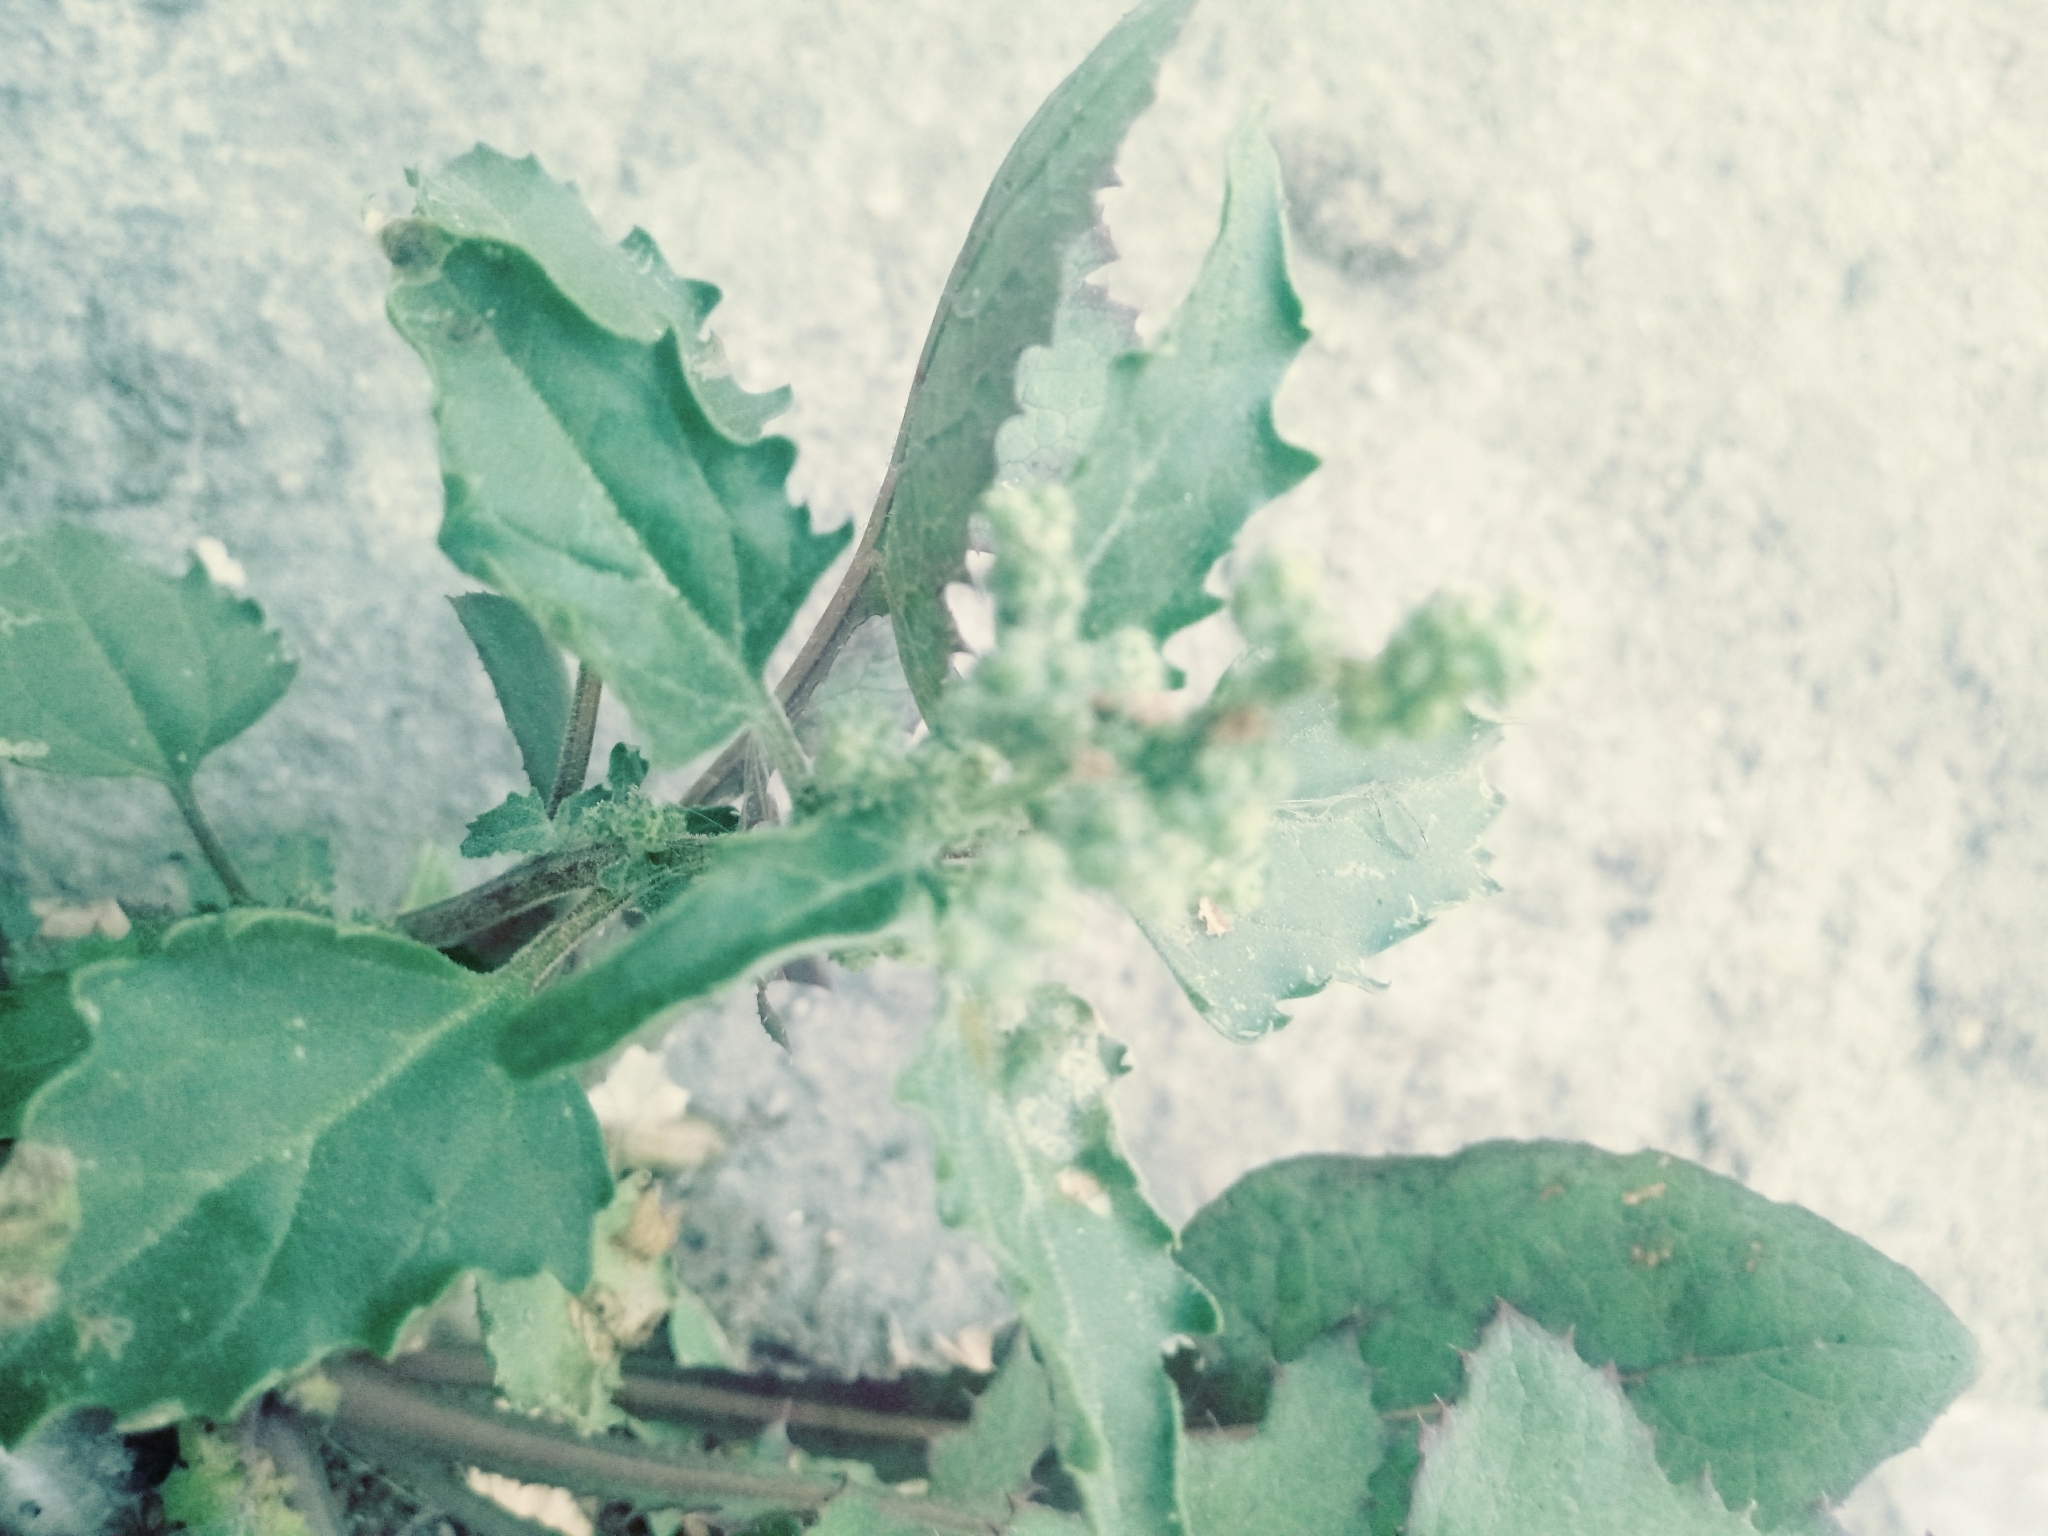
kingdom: Plantae
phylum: Tracheophyta
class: Magnoliopsida
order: Caryophyllales
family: Amaranthaceae
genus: Chenopodiastrum
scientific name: Chenopodiastrum murale
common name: Sowbane
